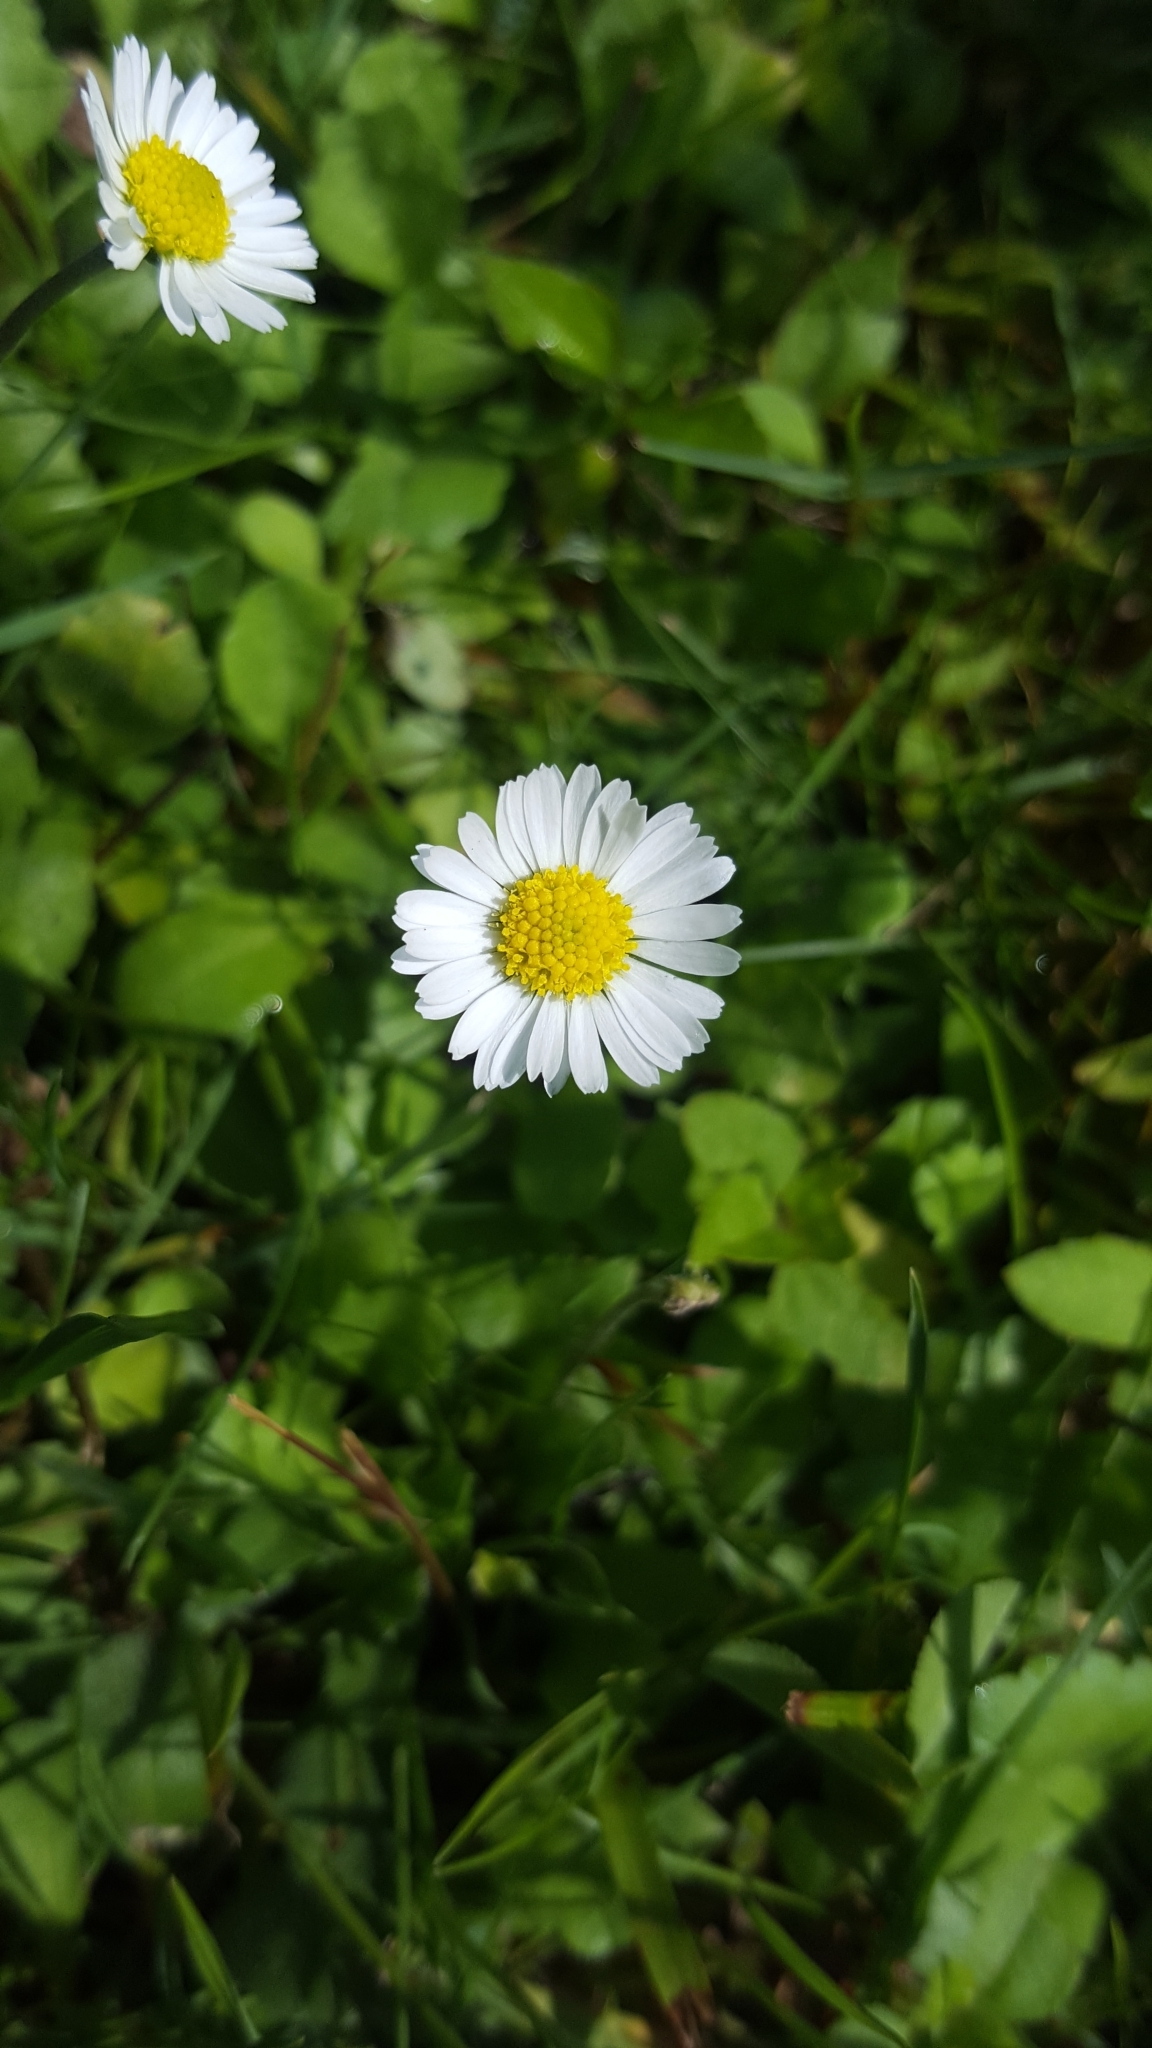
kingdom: Plantae
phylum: Tracheophyta
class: Magnoliopsida
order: Asterales
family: Asteraceae
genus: Bellis
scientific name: Bellis perennis
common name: Lawndaisy
